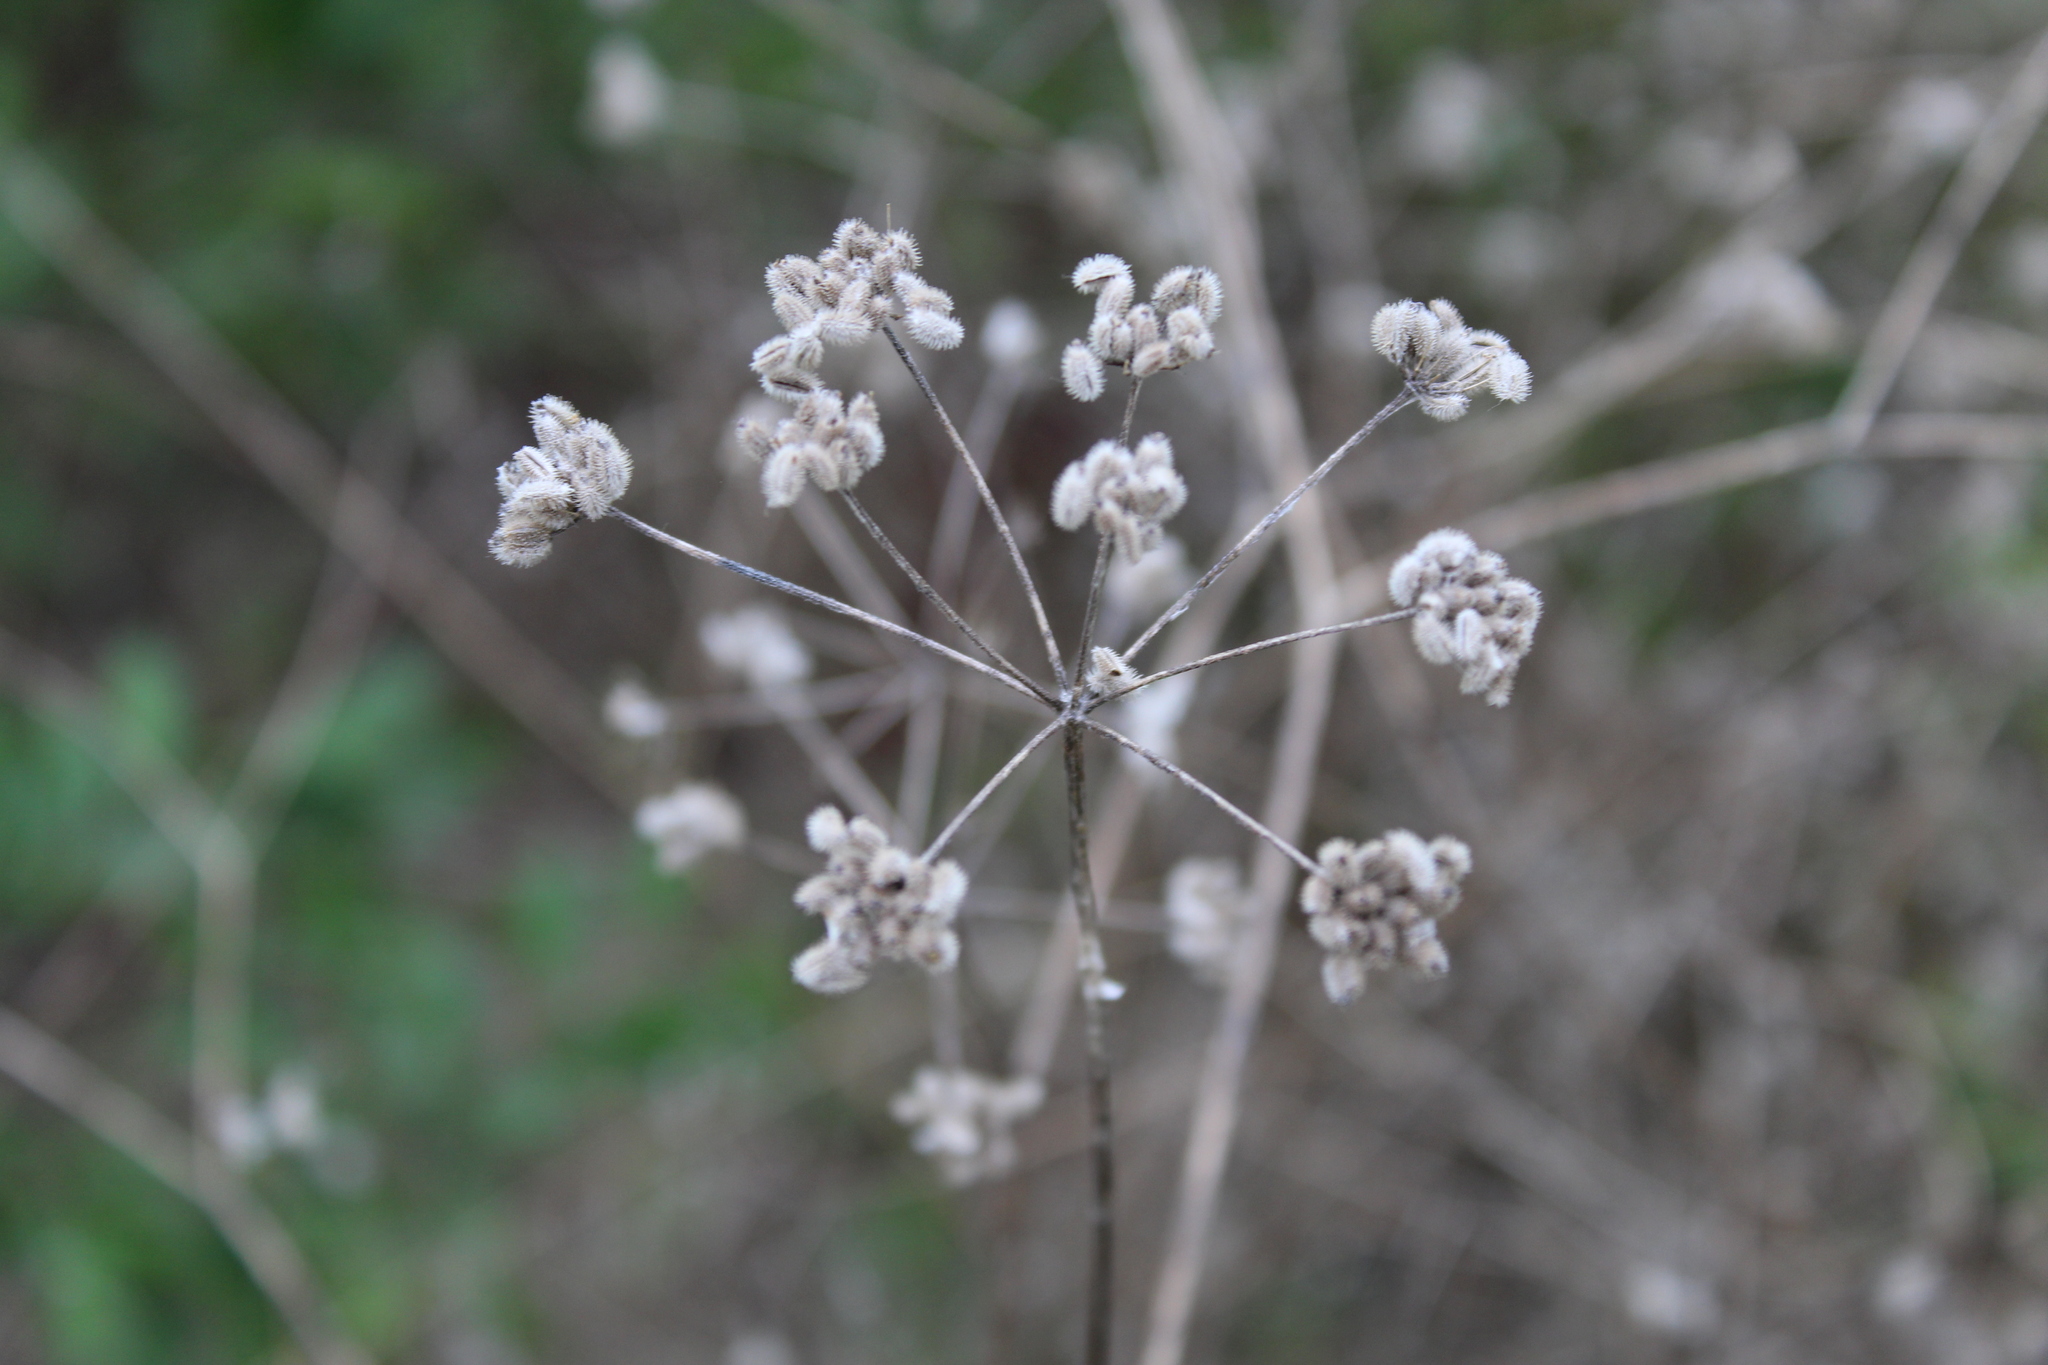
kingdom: Plantae
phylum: Tracheophyta
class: Magnoliopsida
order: Apiales
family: Apiaceae
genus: Torilis
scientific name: Torilis arvensis
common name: Spreading hedge-parsley
